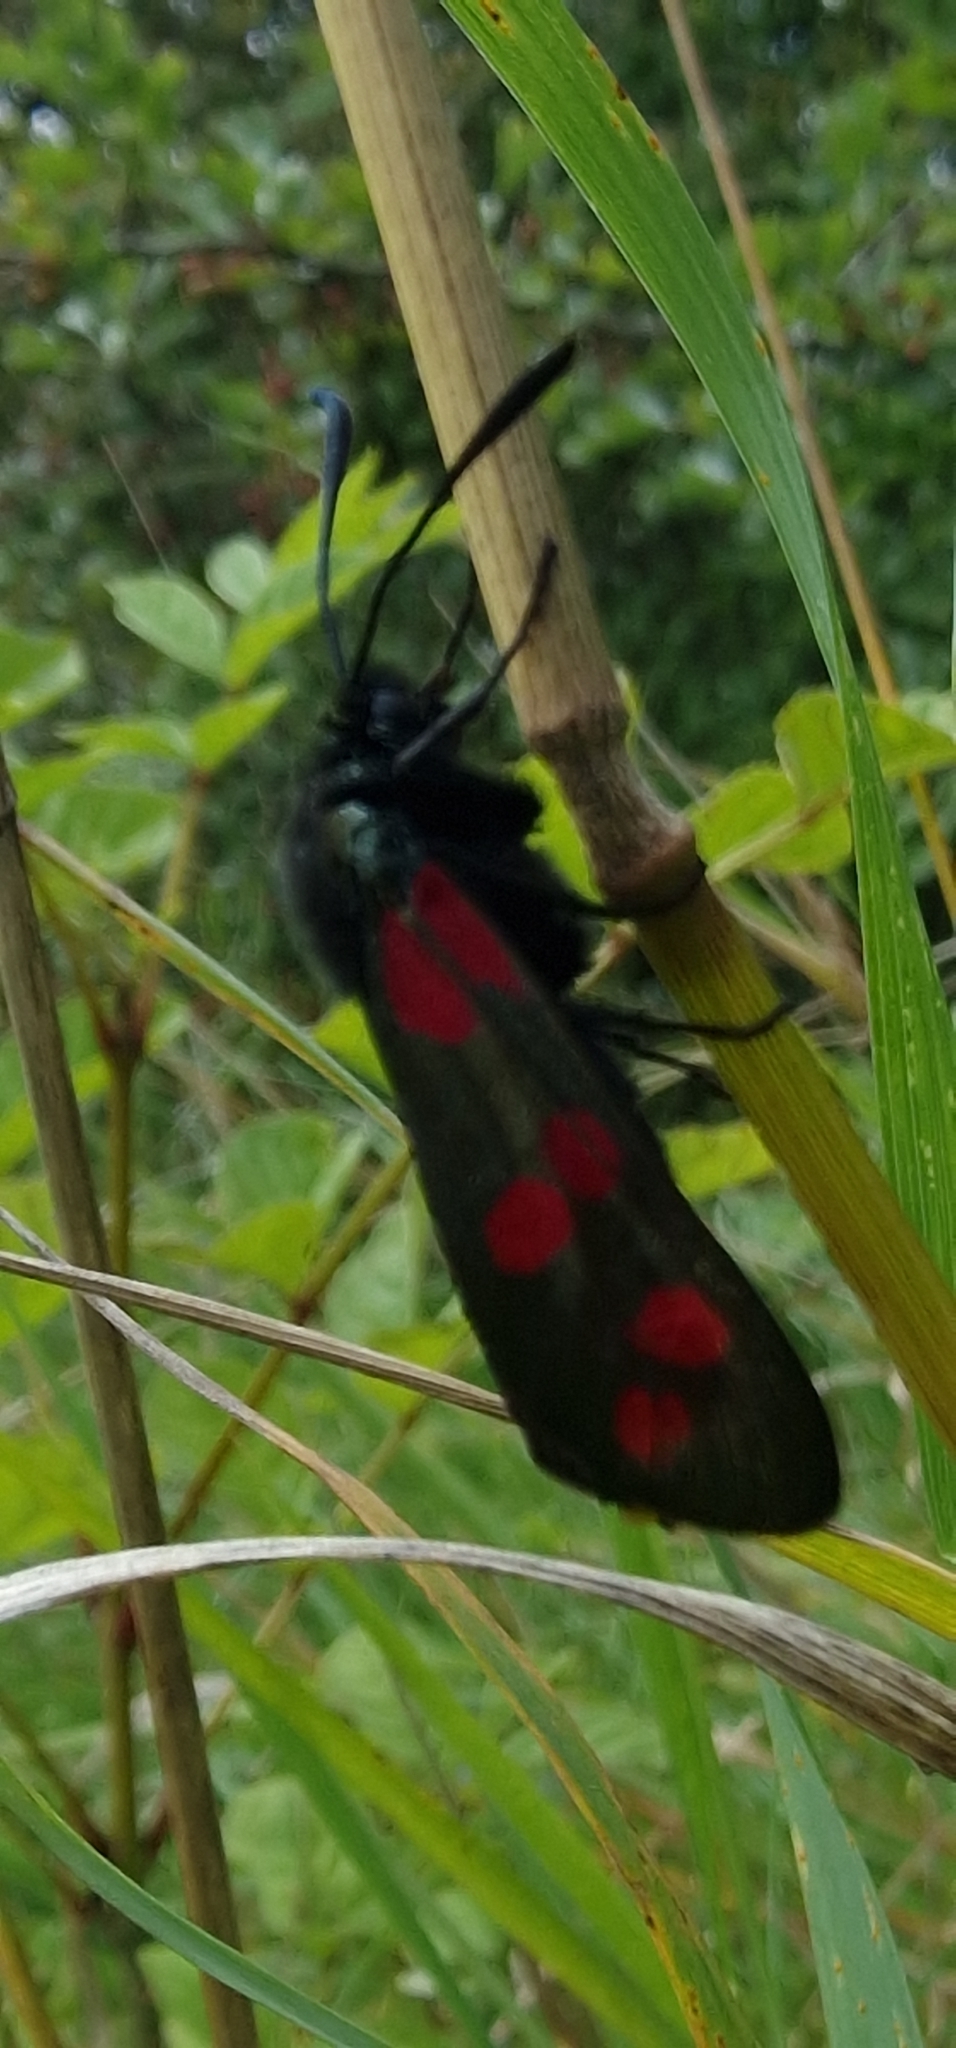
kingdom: Animalia
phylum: Arthropoda
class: Insecta
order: Lepidoptera
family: Zygaenidae
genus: Zygaena
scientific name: Zygaena filipendulae
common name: Six-spot burnet
